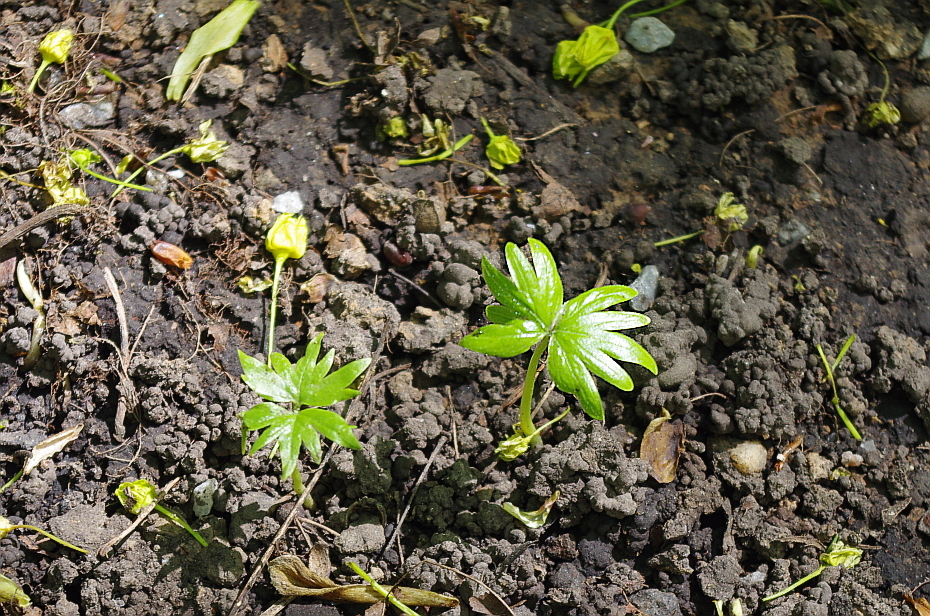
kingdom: Plantae
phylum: Tracheophyta
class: Magnoliopsida
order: Malvales
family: Malvaceae
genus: Tilia
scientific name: Tilia platyphyllos
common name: Large-leaved lime
